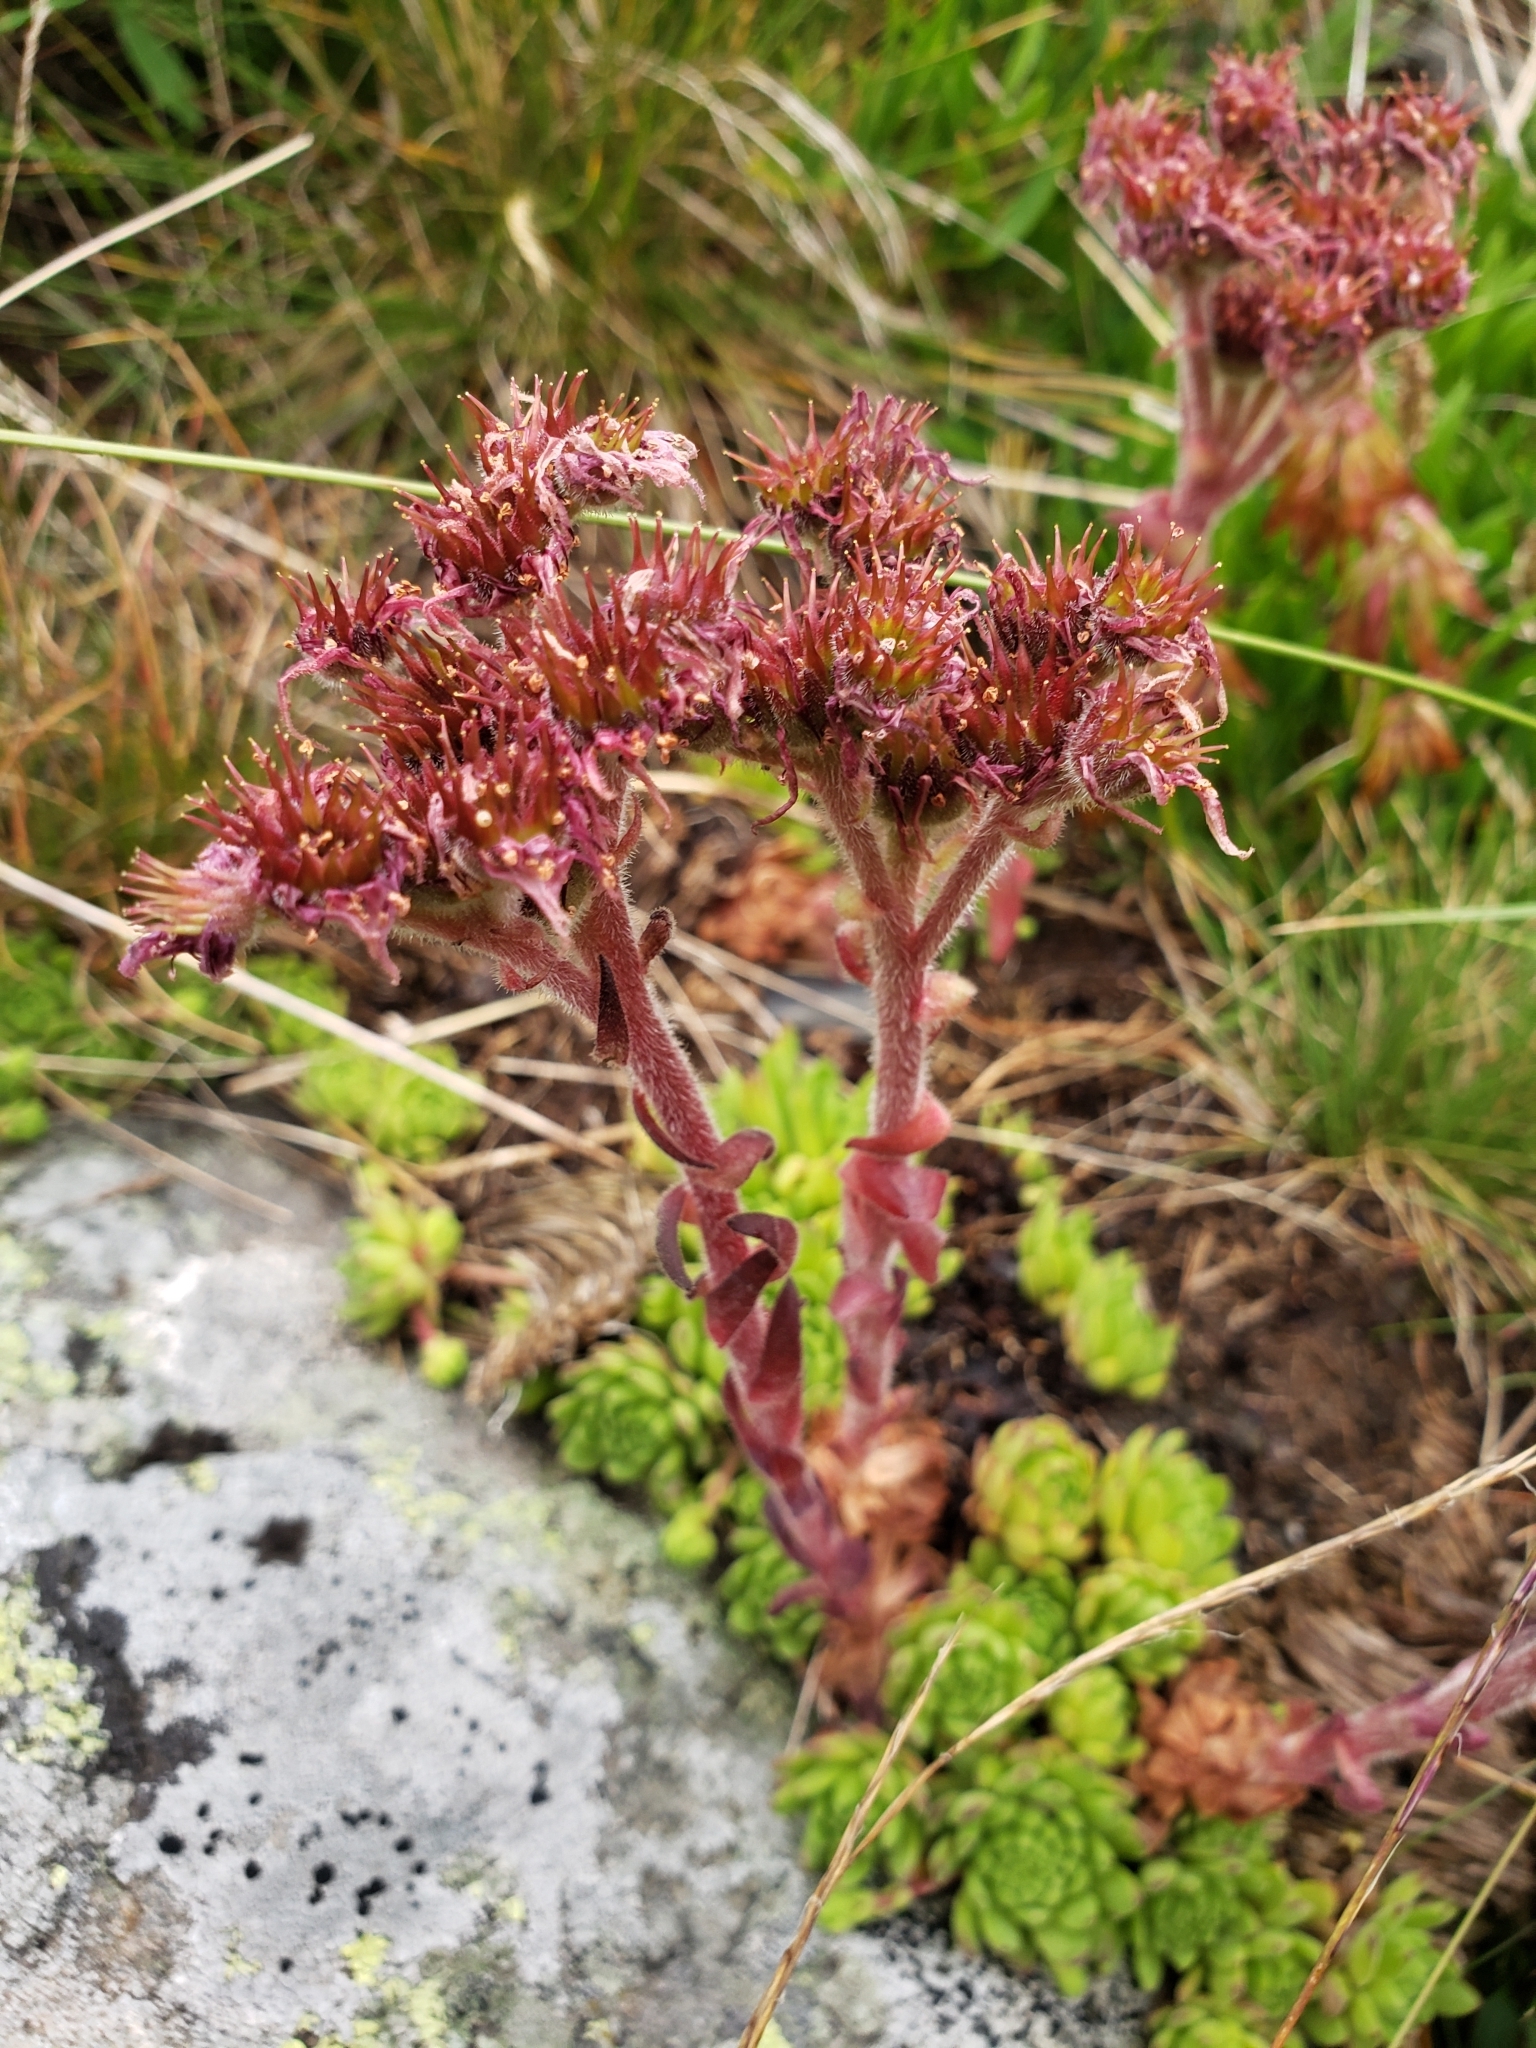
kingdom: Plantae
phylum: Tracheophyta
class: Magnoliopsida
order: Saxifragales
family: Crassulaceae
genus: Sempervivum
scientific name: Sempervivum montanum
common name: Mountain house-leek
